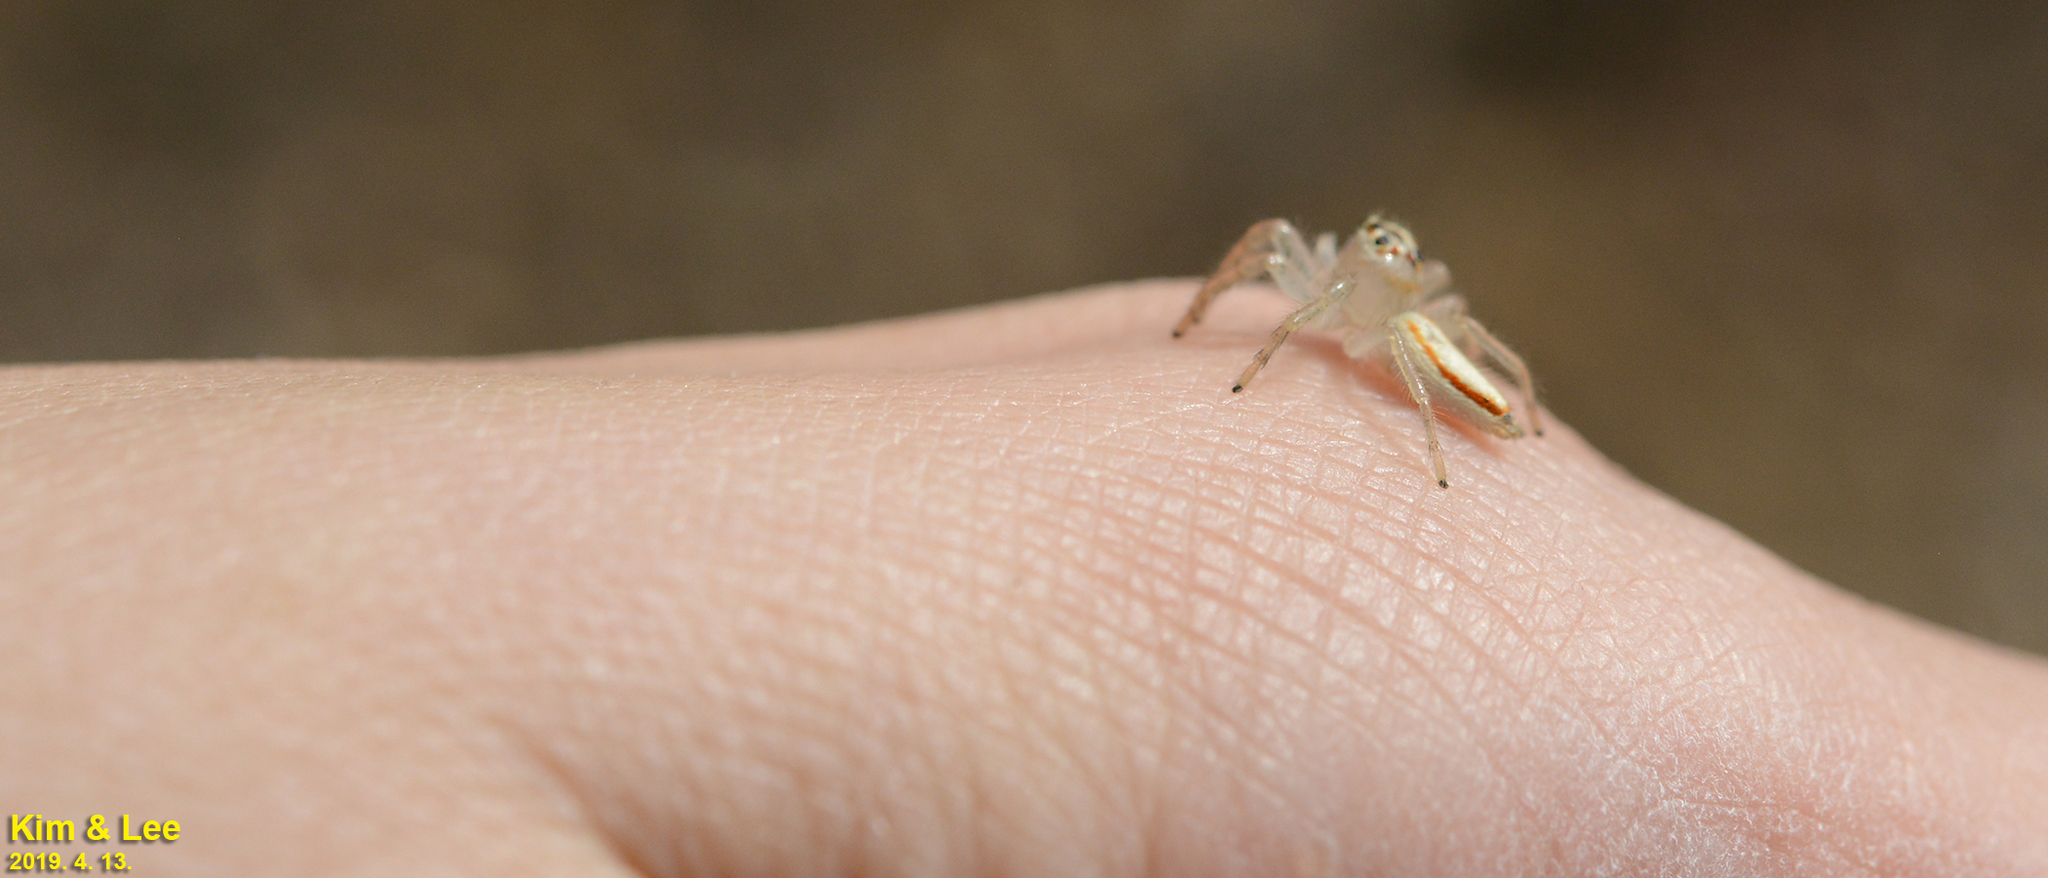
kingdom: Animalia
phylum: Arthropoda
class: Arachnida
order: Araneae
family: Salticidae
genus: Telamonia
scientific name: Telamonia vlijmi
